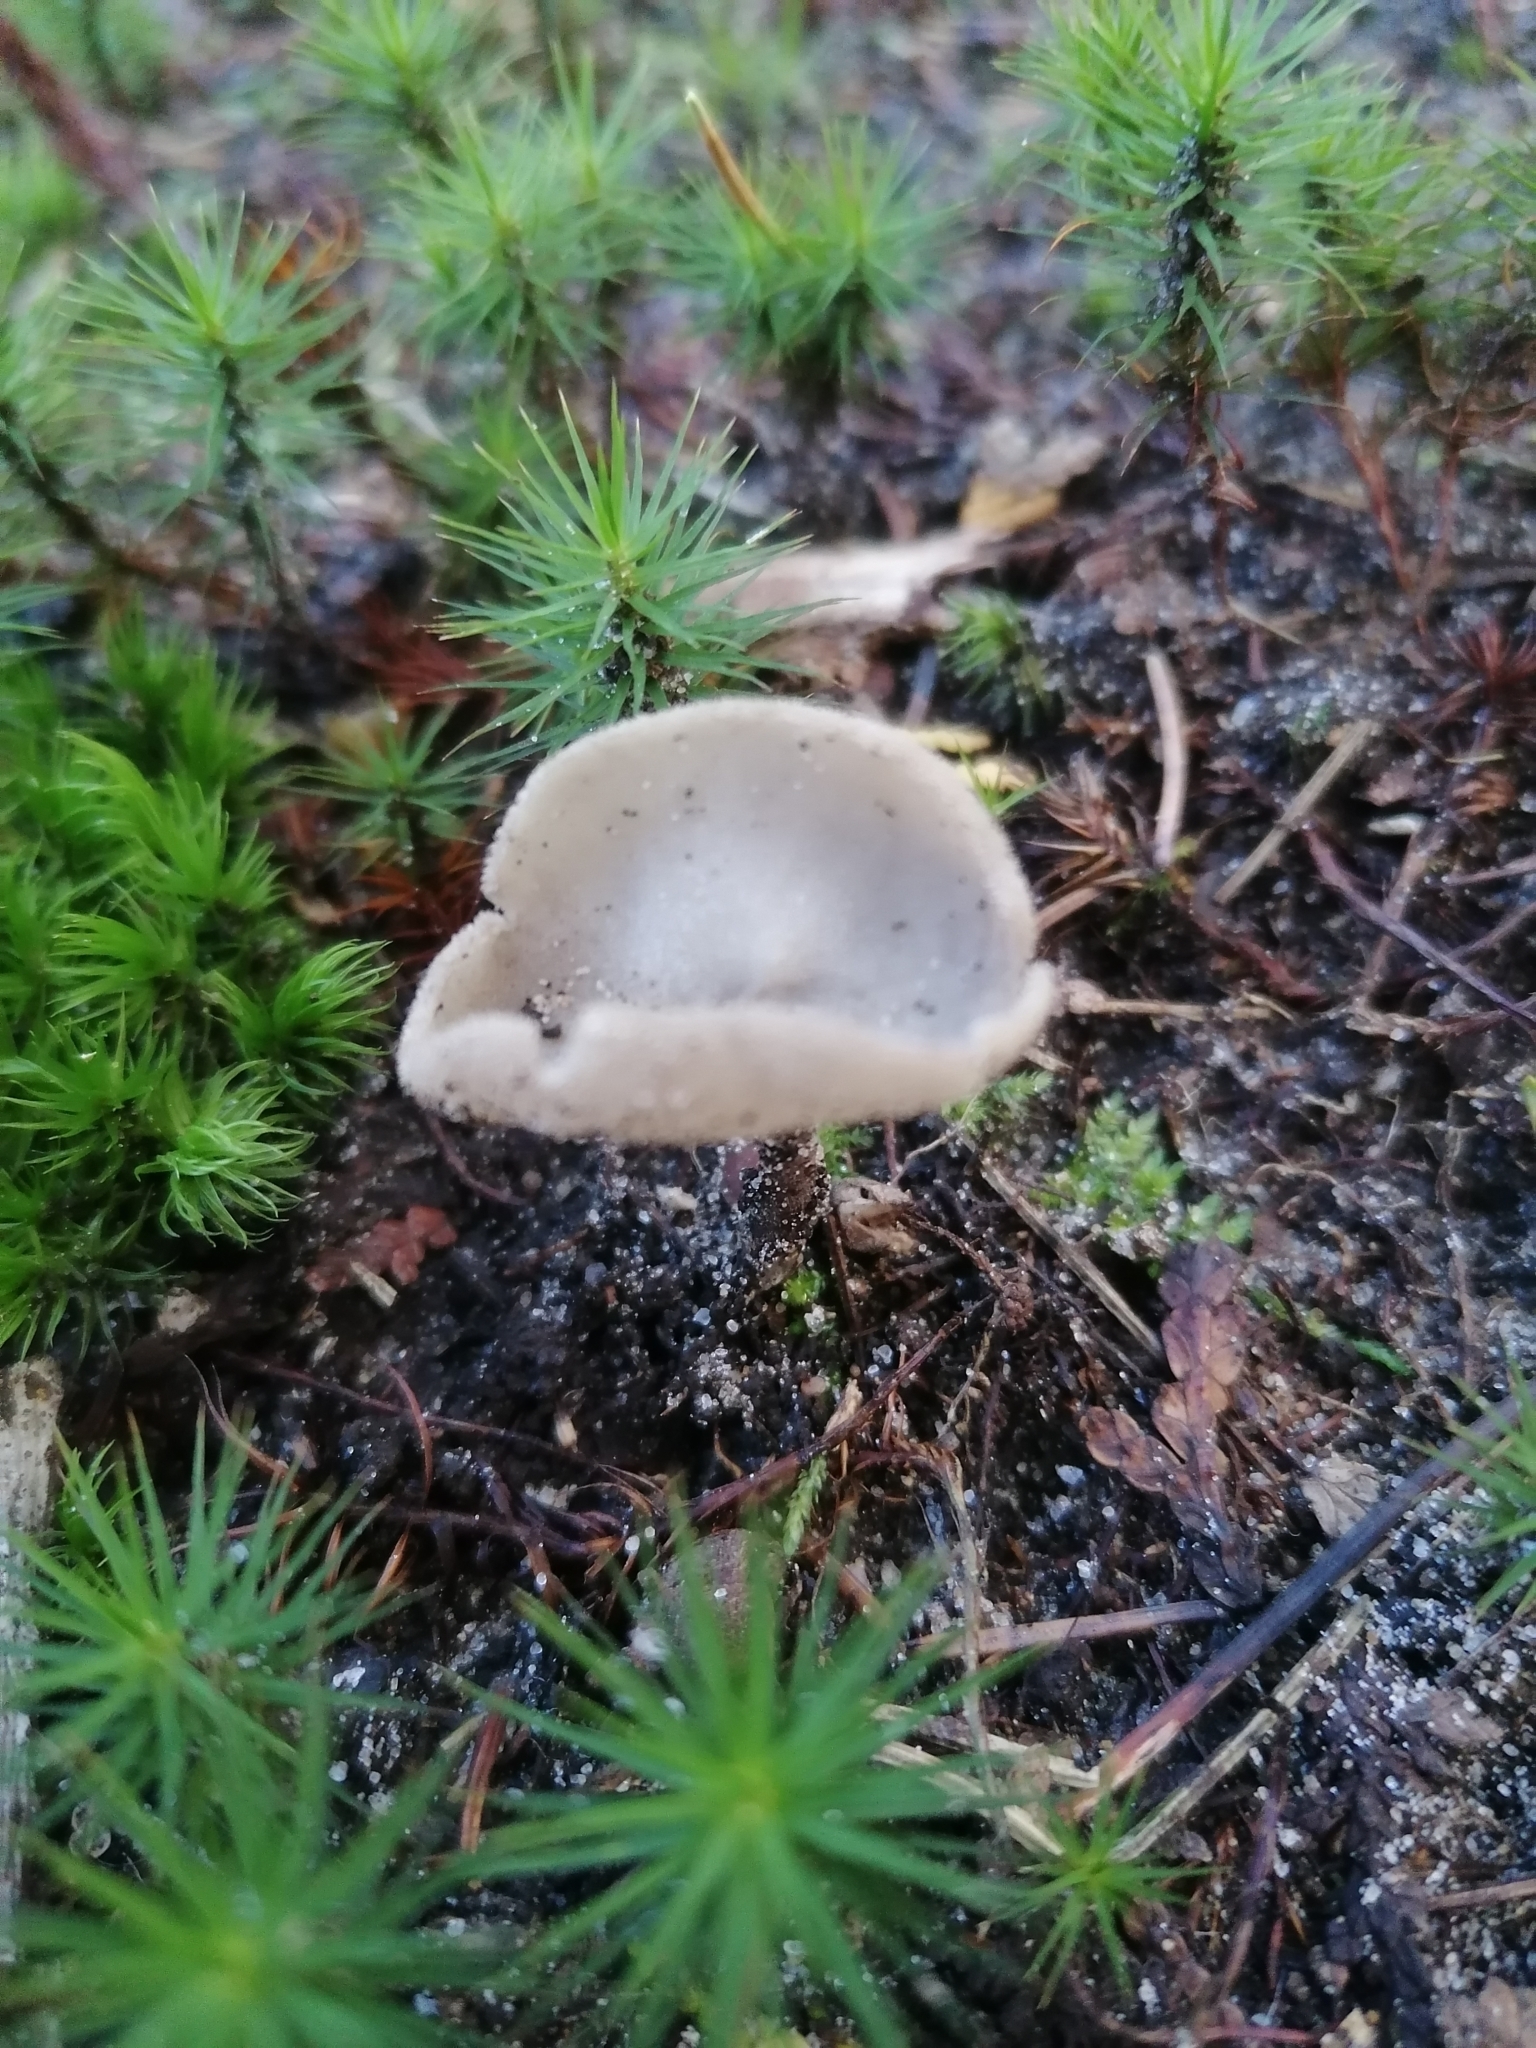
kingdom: Fungi
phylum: Ascomycota
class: Pezizomycetes
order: Pezizales
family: Helvellaceae
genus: Helvella
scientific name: Helvella macropus
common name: Felt saddle
